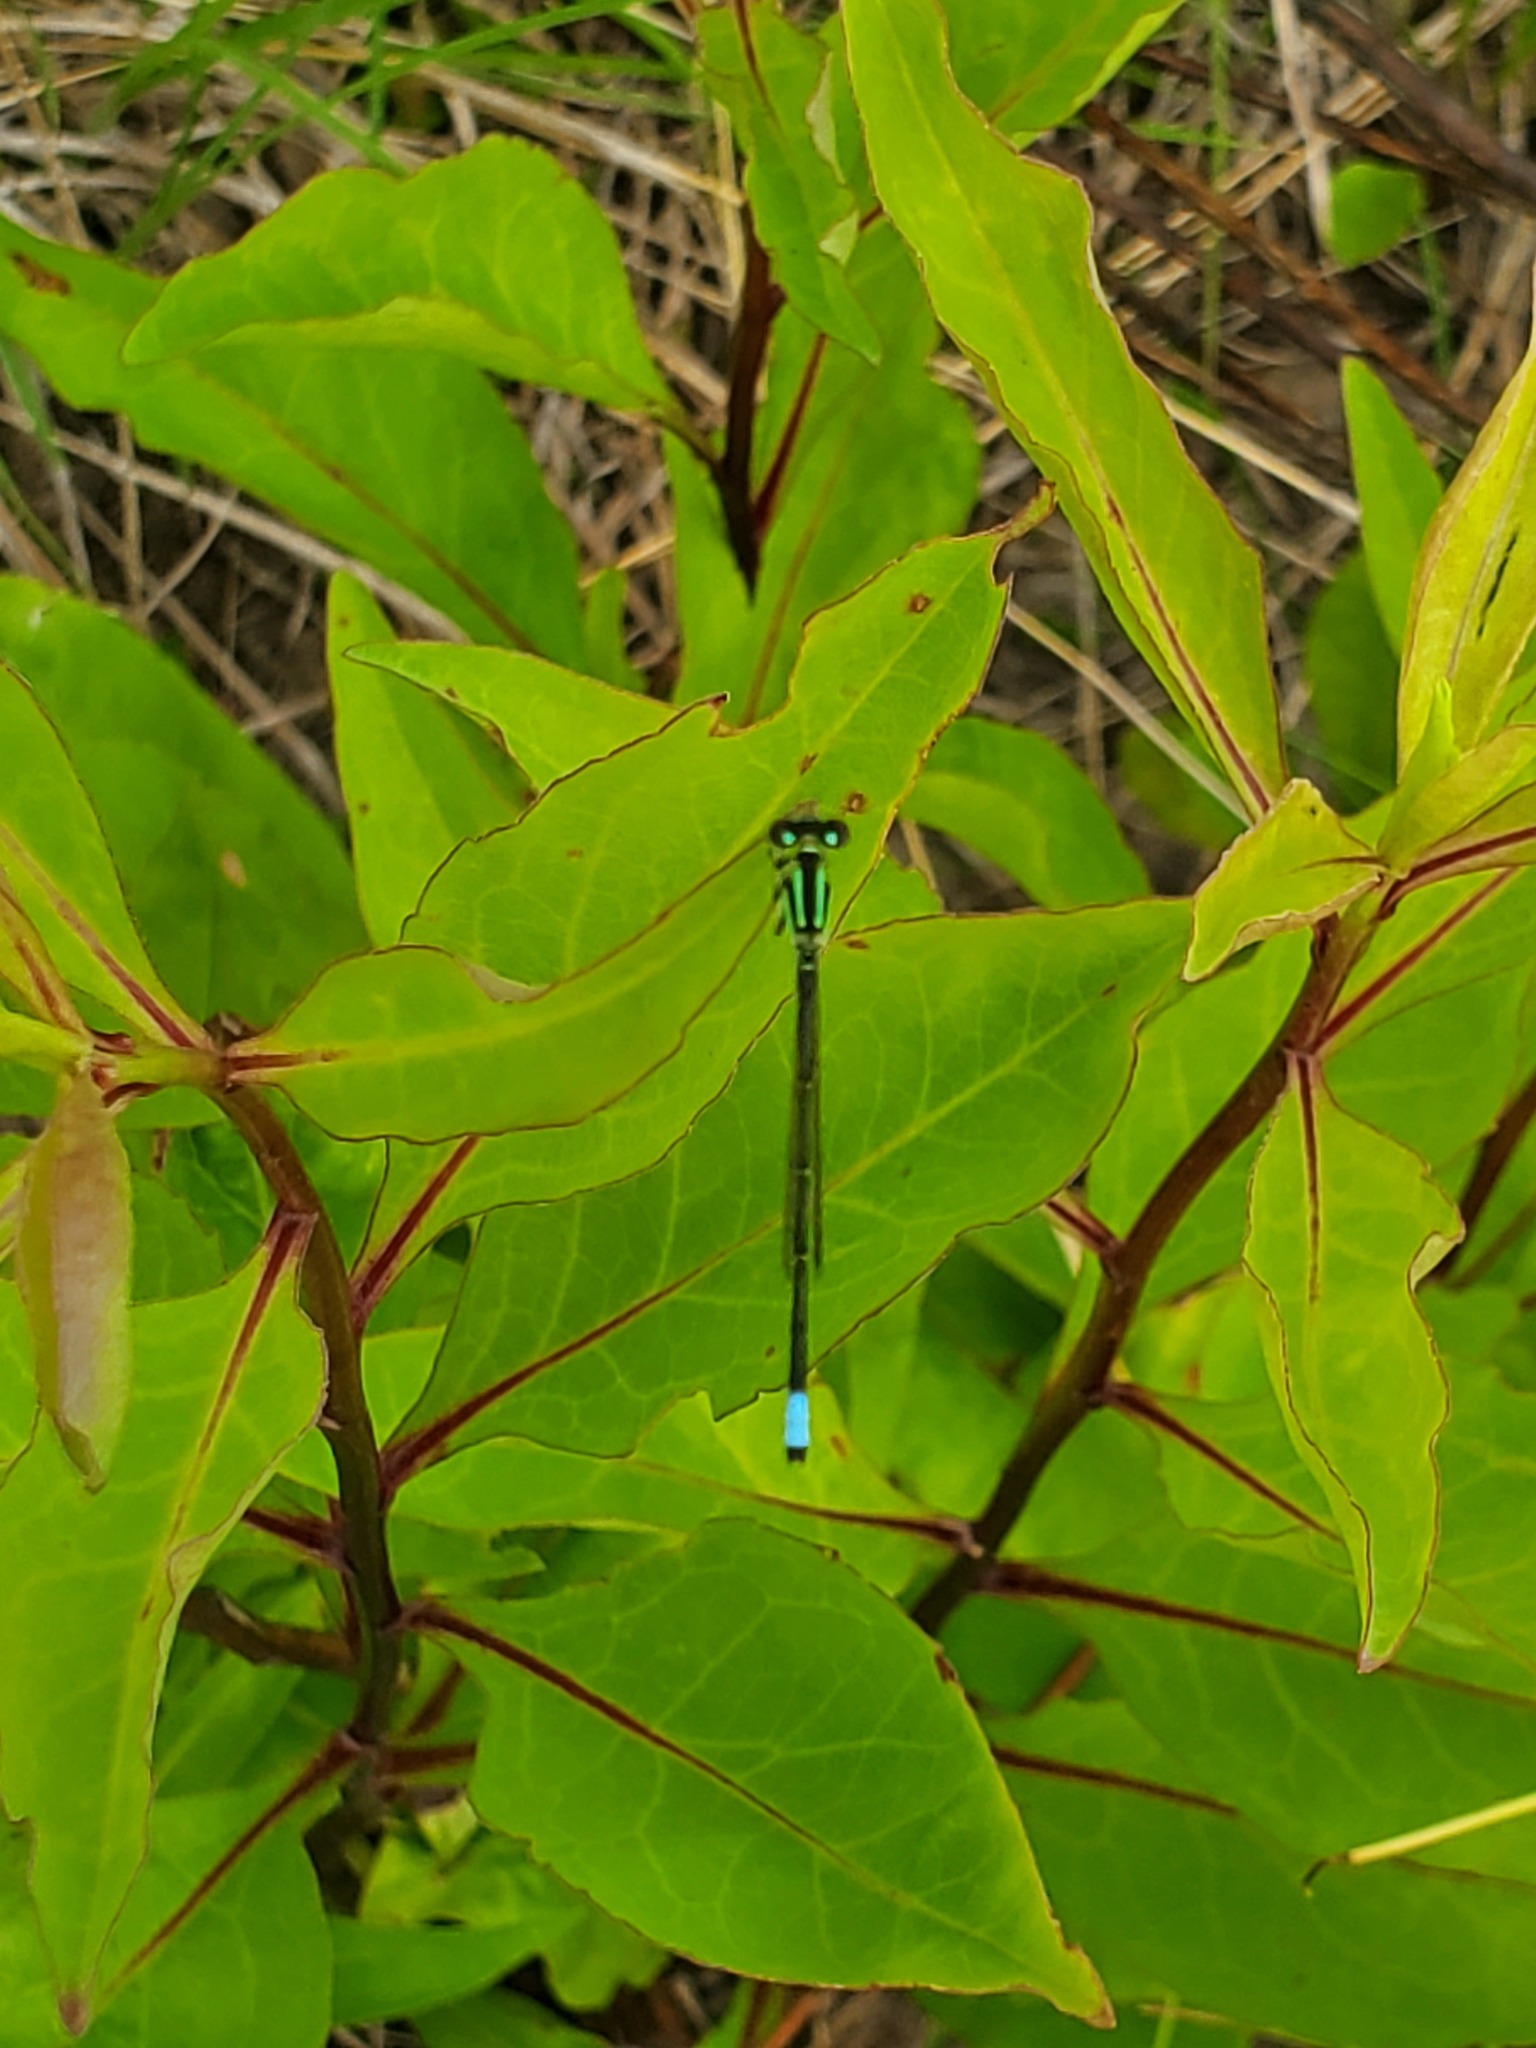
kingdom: Animalia
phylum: Arthropoda
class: Insecta
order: Odonata
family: Coenagrionidae
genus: Ischnura
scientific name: Ischnura verticalis
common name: Eastern forktail
